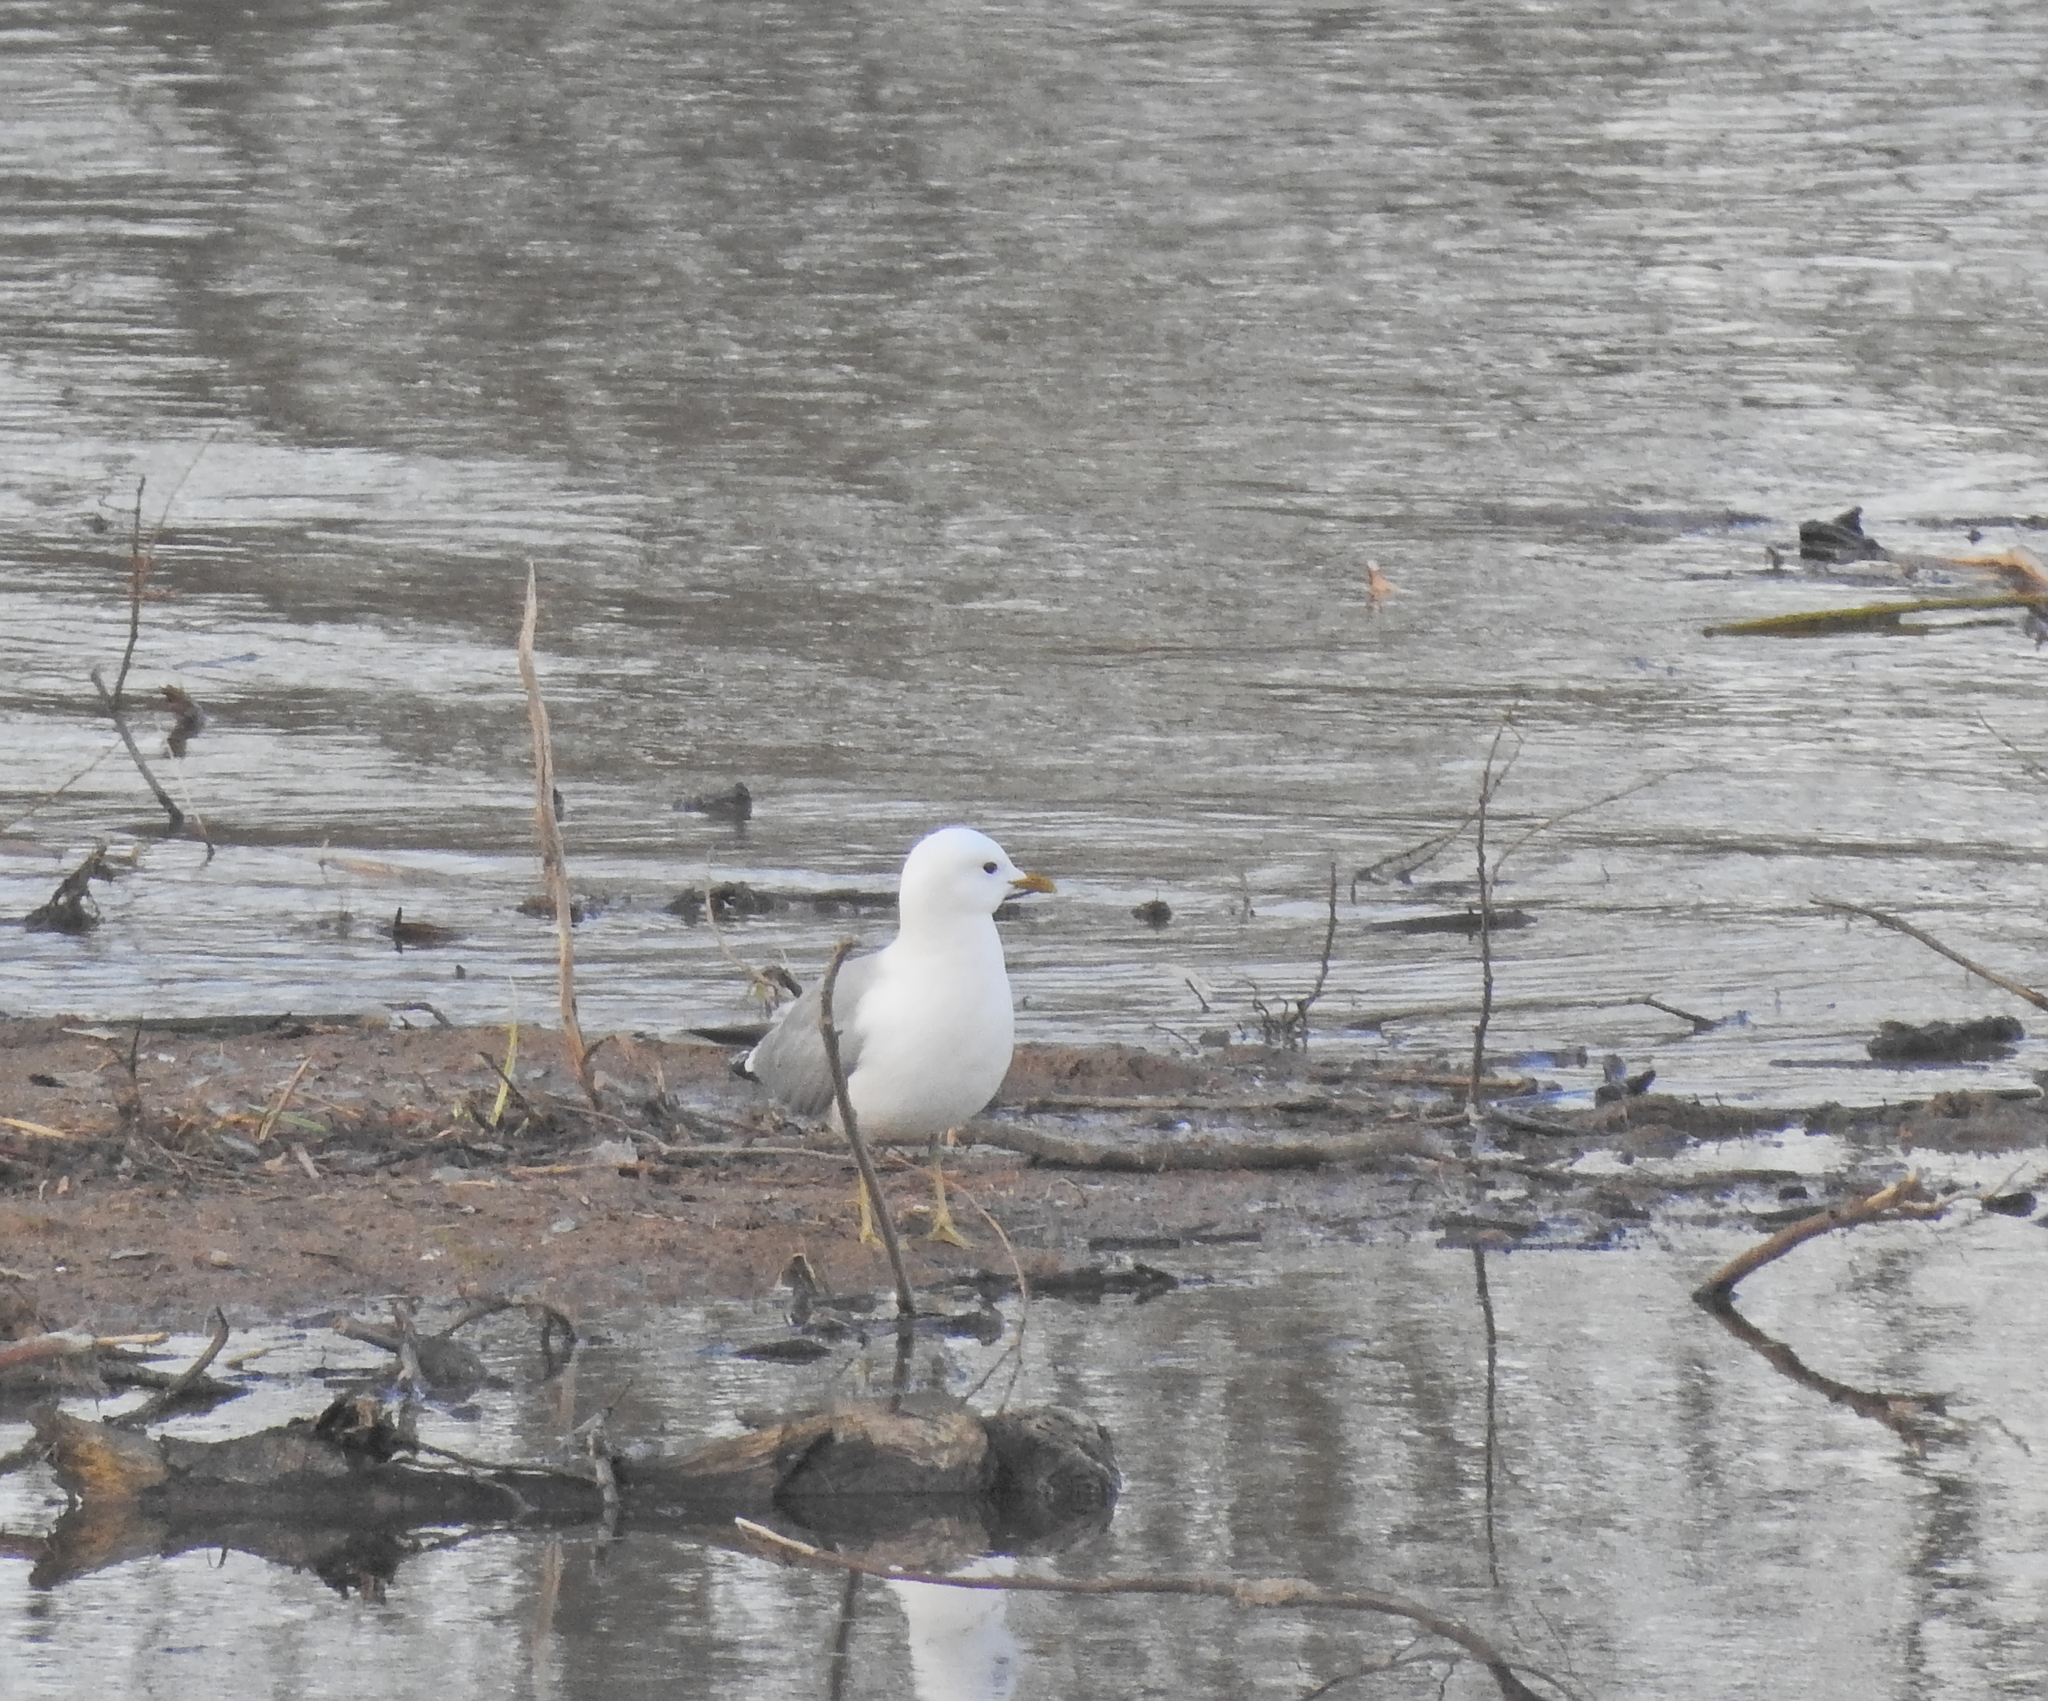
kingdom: Animalia
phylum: Chordata
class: Aves
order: Charadriiformes
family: Laridae
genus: Larus
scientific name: Larus canus
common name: Mew gull
